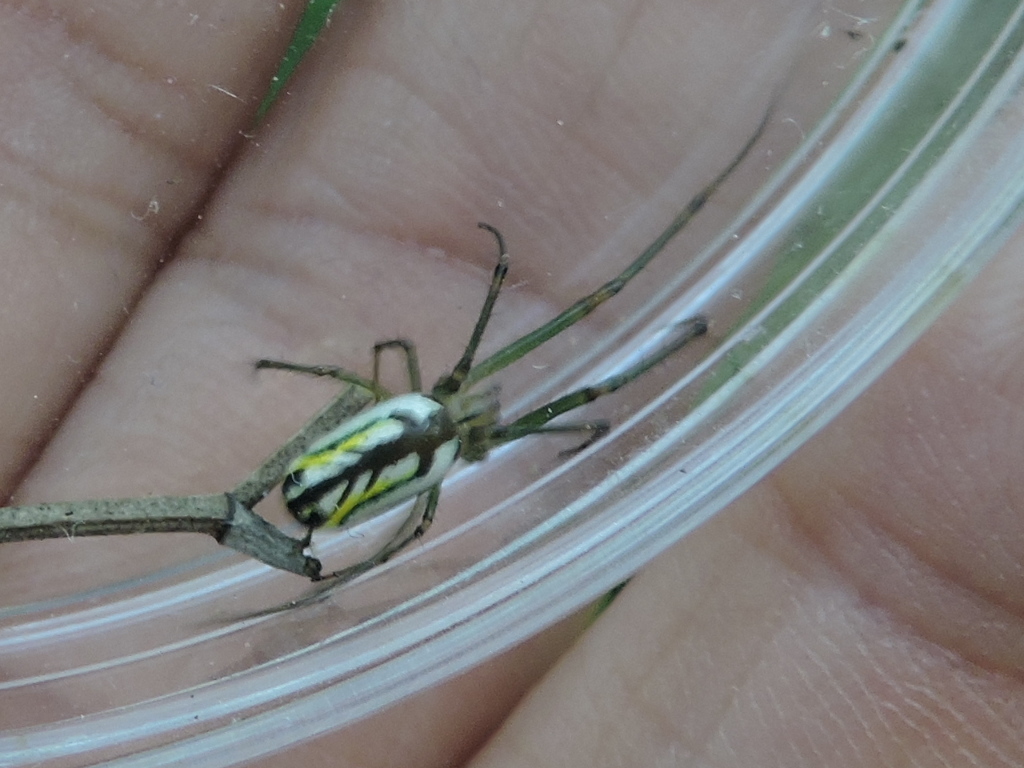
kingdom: Animalia
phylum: Arthropoda
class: Arachnida
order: Araneae
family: Tetragnathidae
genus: Leucauge
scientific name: Leucauge venusta
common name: Longjawed orb weavers
